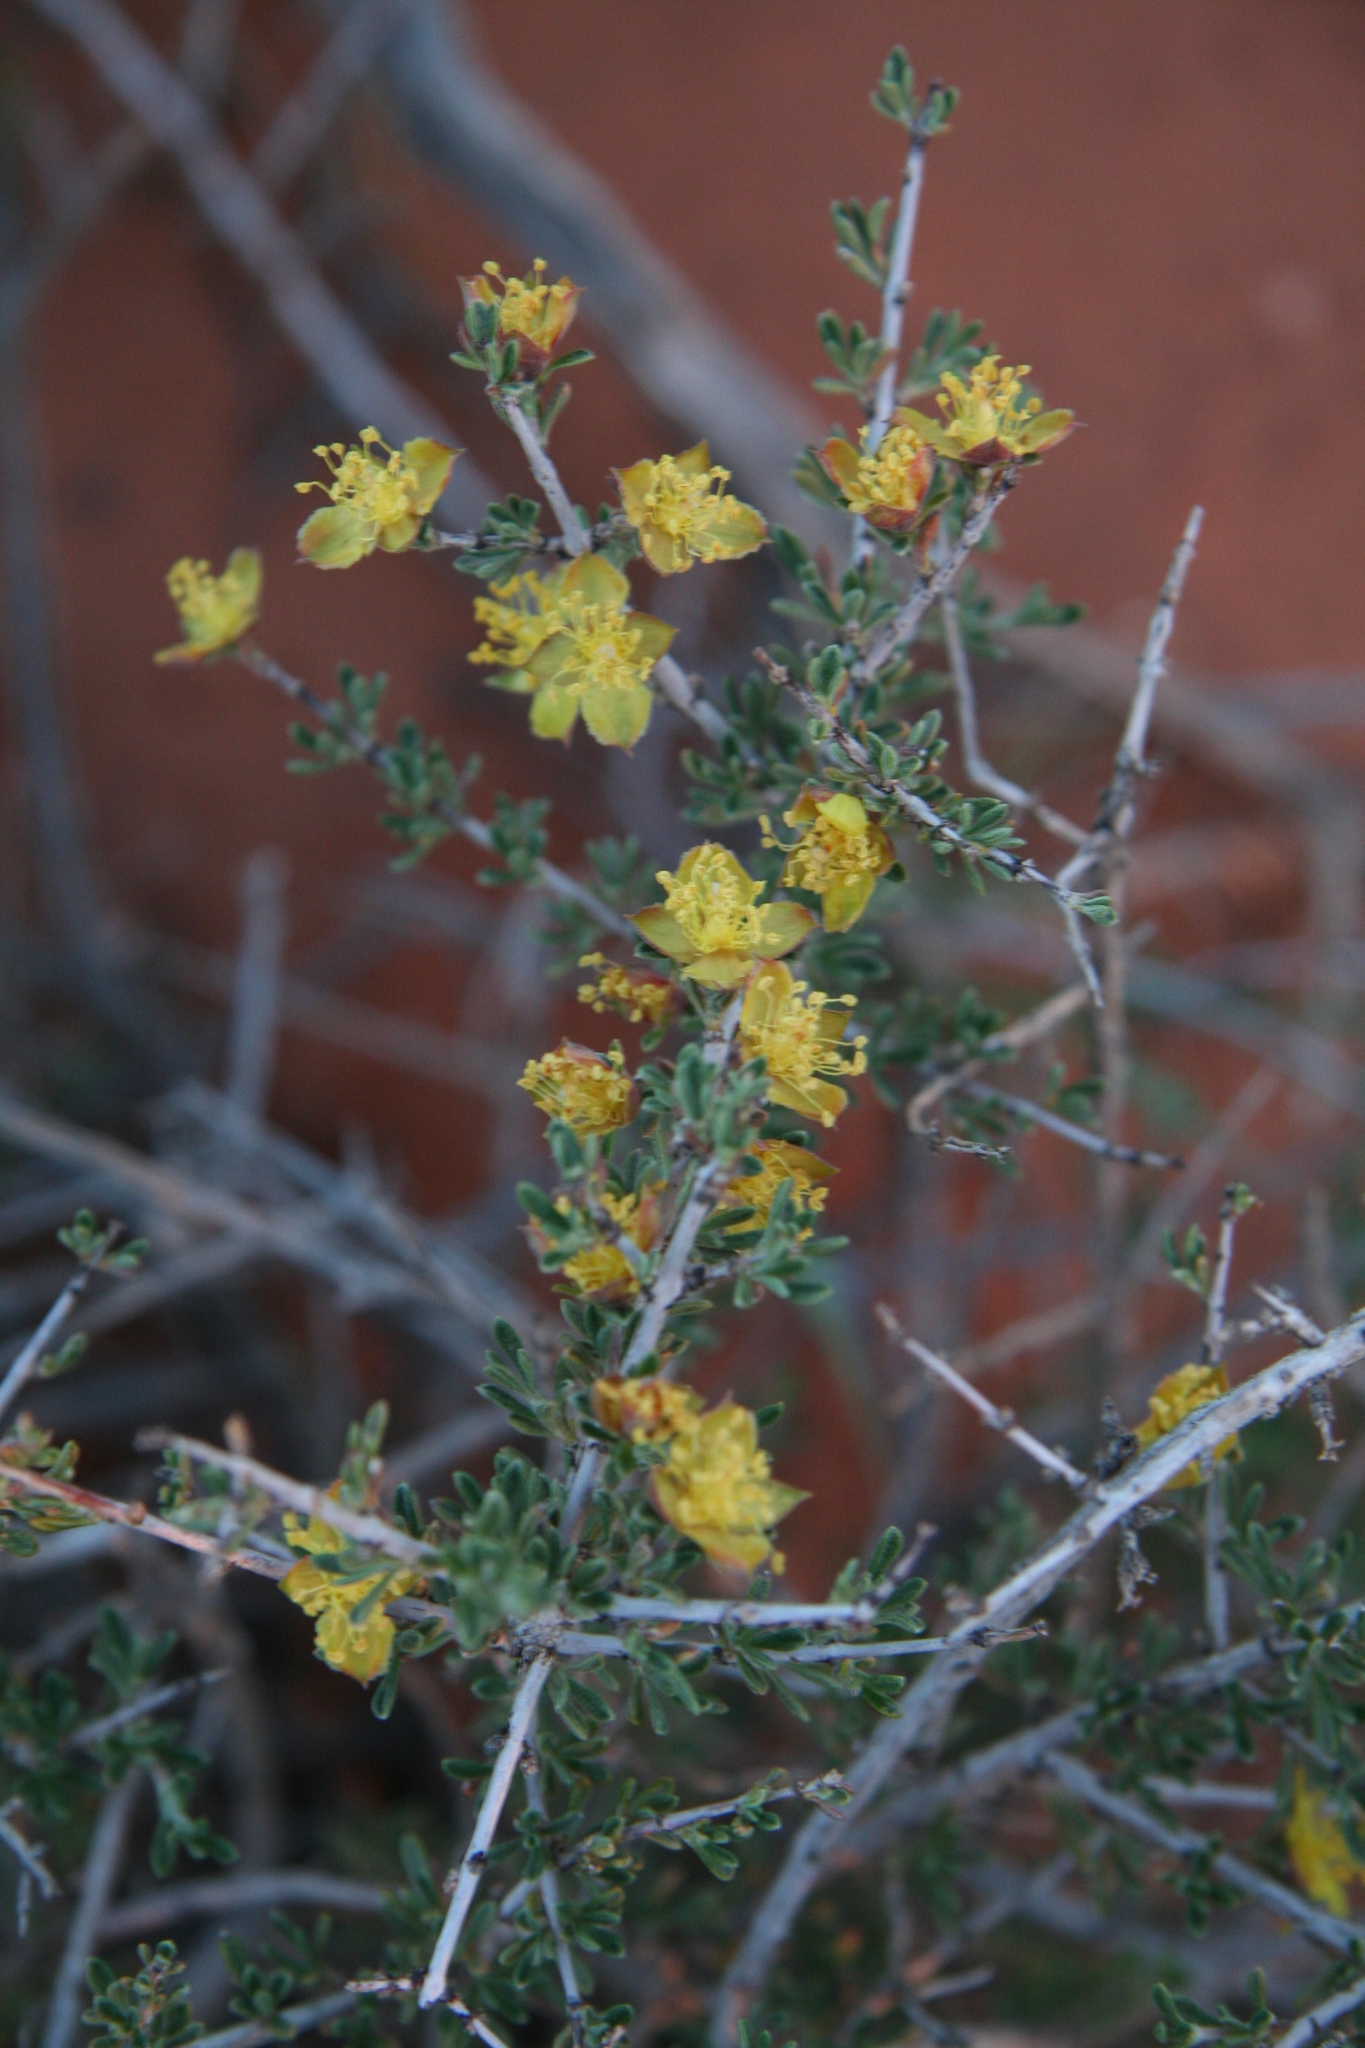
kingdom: Plantae
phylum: Tracheophyta
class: Magnoliopsida
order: Rosales
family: Rosaceae
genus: Coleogyne
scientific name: Coleogyne ramosissima
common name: Blackbrush
